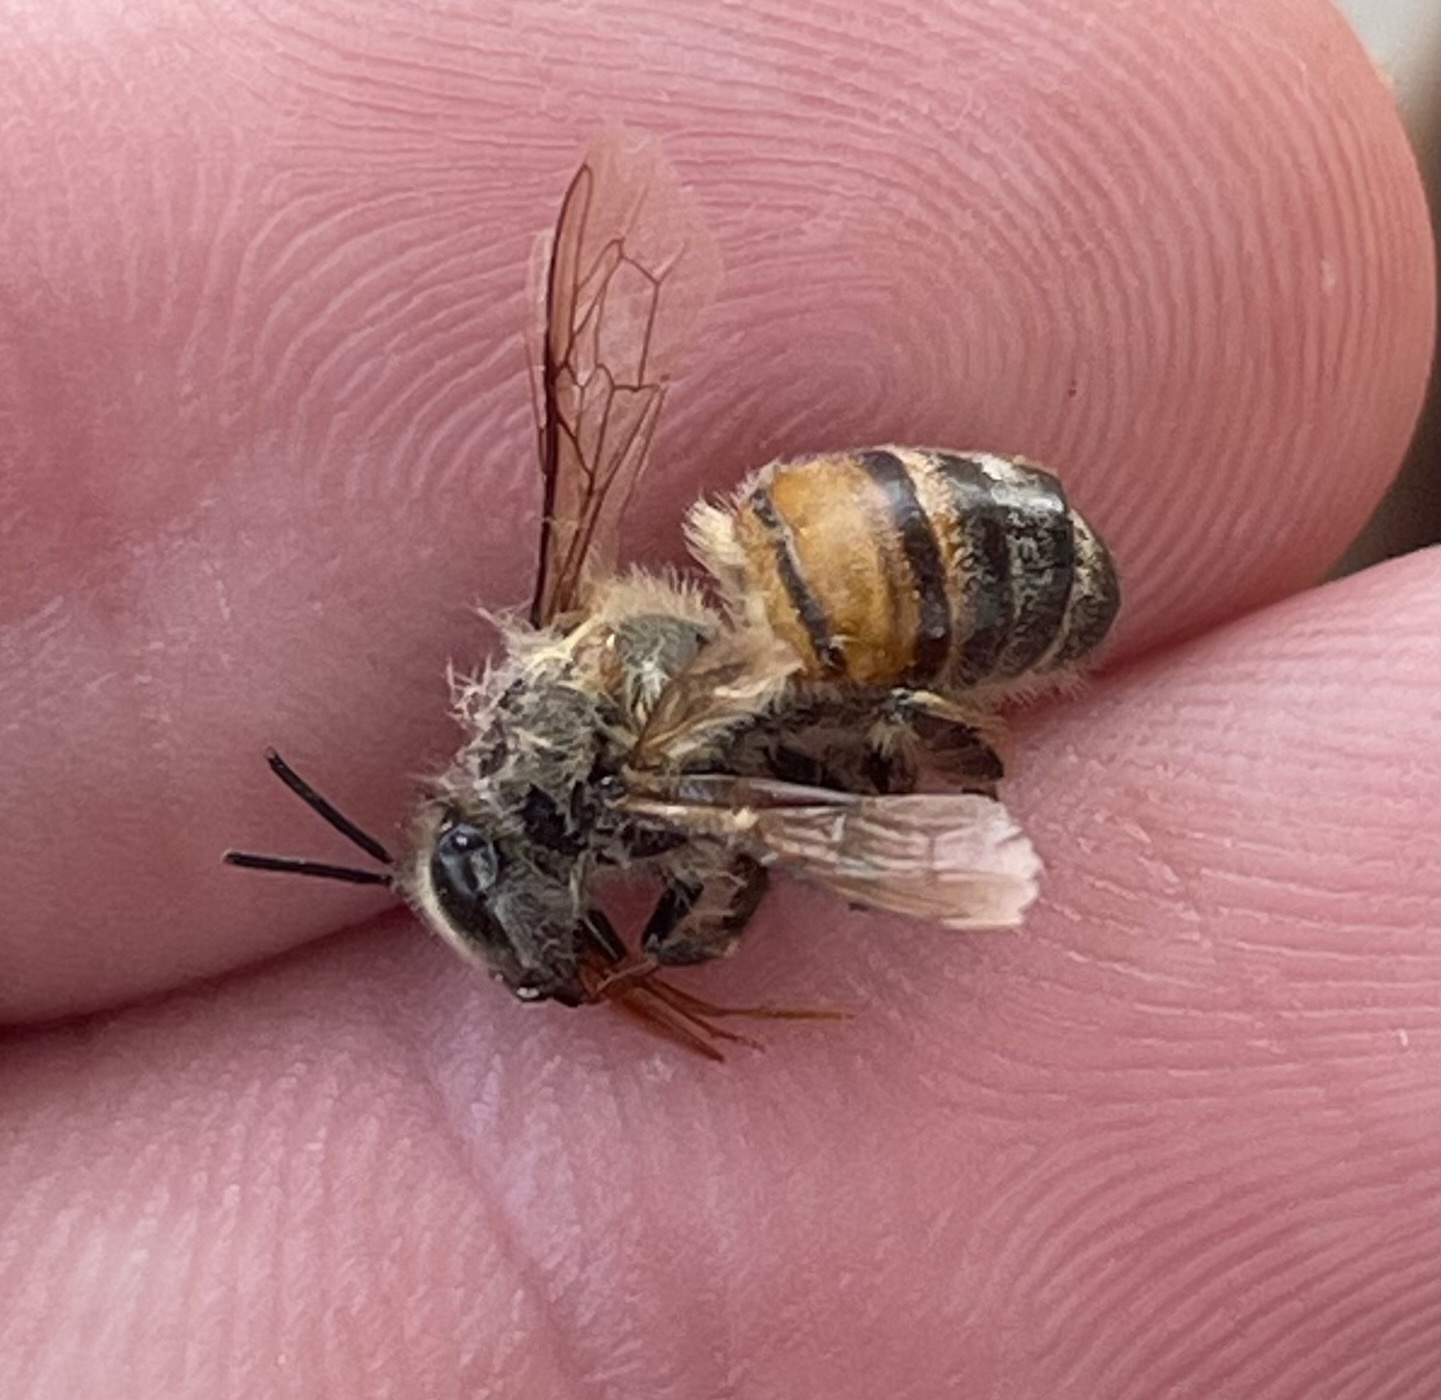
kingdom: Animalia
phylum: Arthropoda
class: Insecta
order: Hymenoptera
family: Apidae
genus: Apis
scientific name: Apis mellifera
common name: Honey bee
